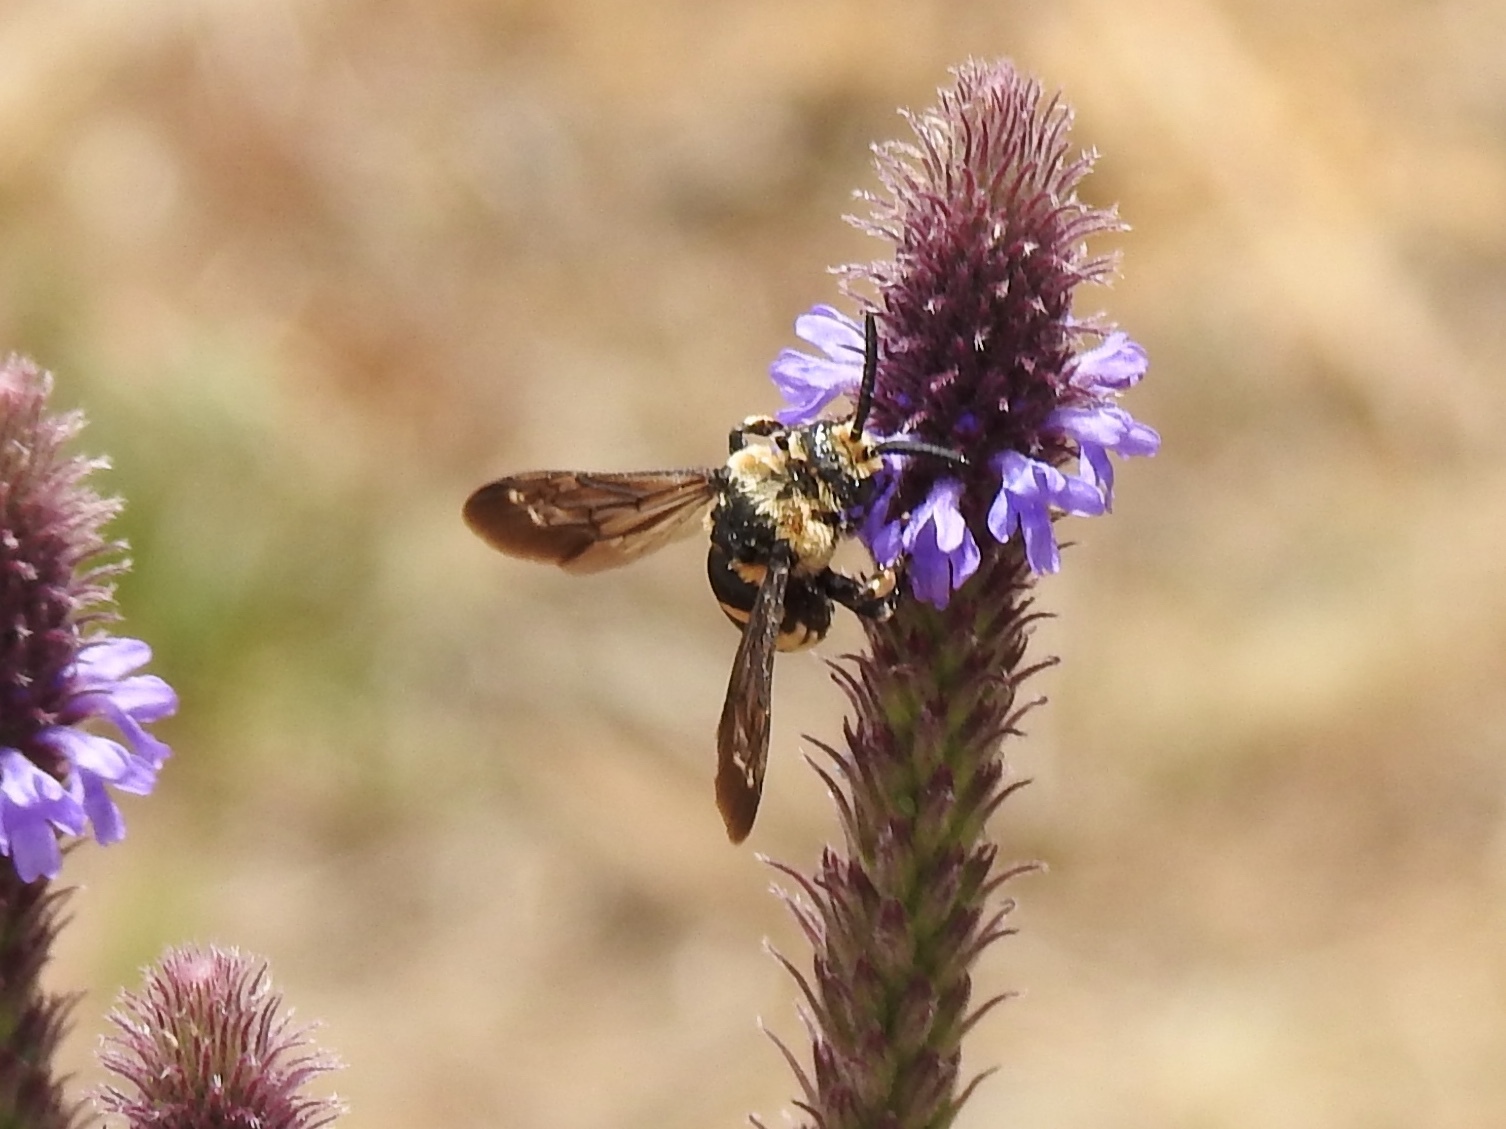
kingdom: Animalia
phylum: Arthropoda
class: Insecta
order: Hymenoptera
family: Apidae
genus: Xeromelecta
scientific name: Xeromelecta interrupta
